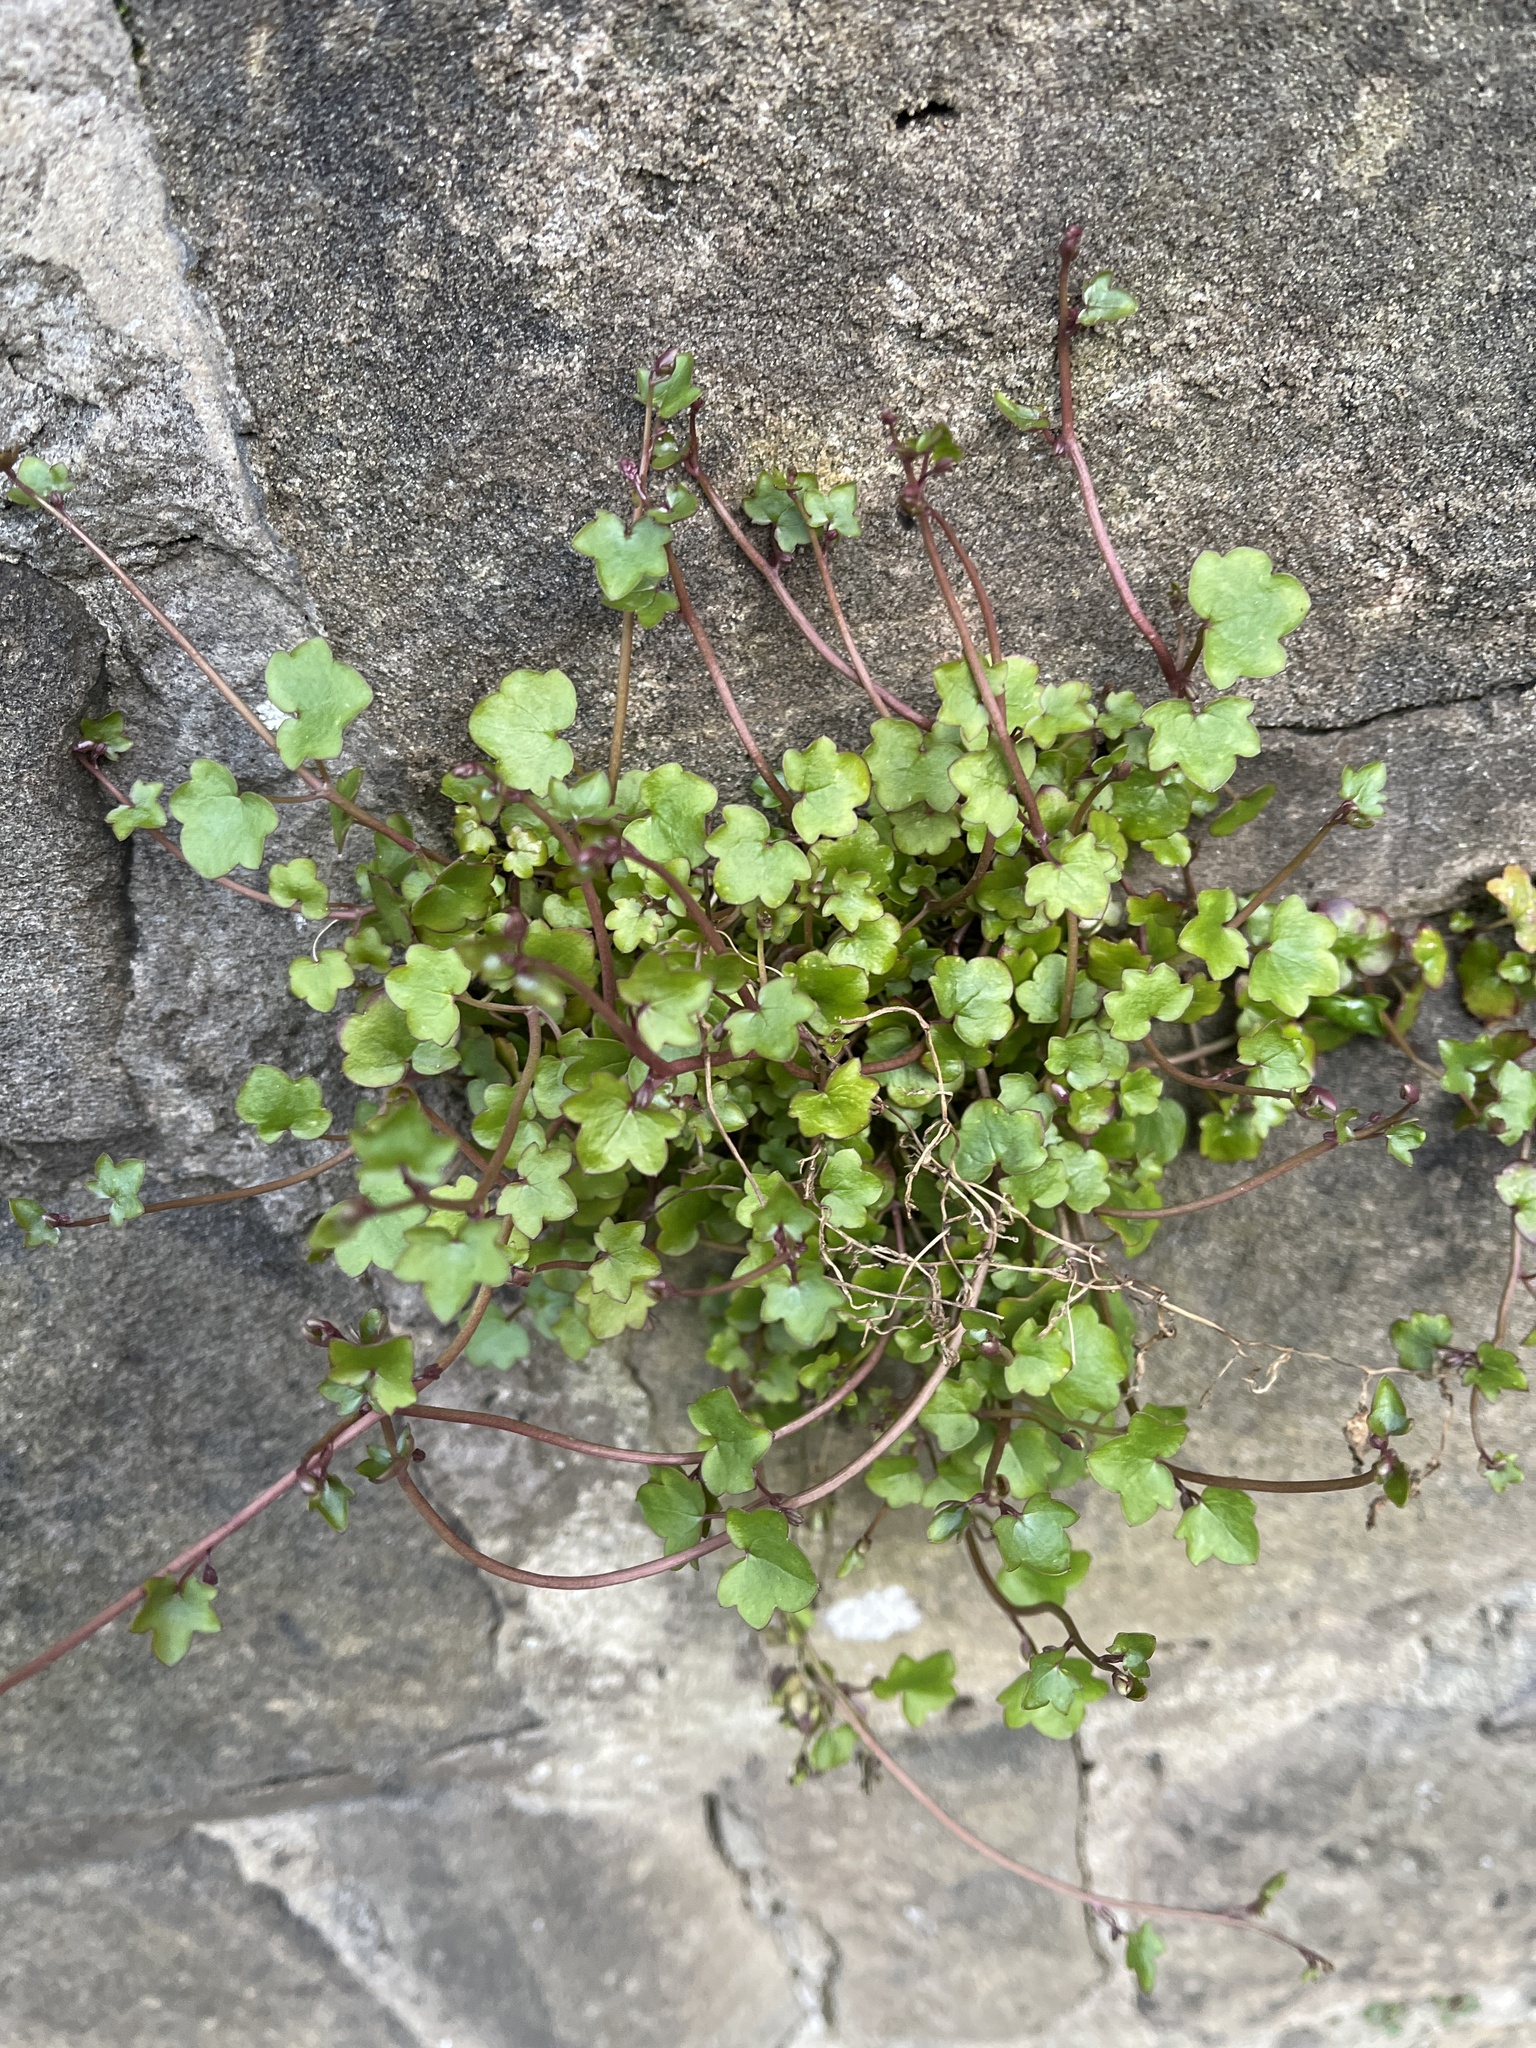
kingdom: Plantae
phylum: Tracheophyta
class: Magnoliopsida
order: Lamiales
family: Plantaginaceae
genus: Cymbalaria
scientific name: Cymbalaria muralis
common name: Ivy-leaved toadflax
